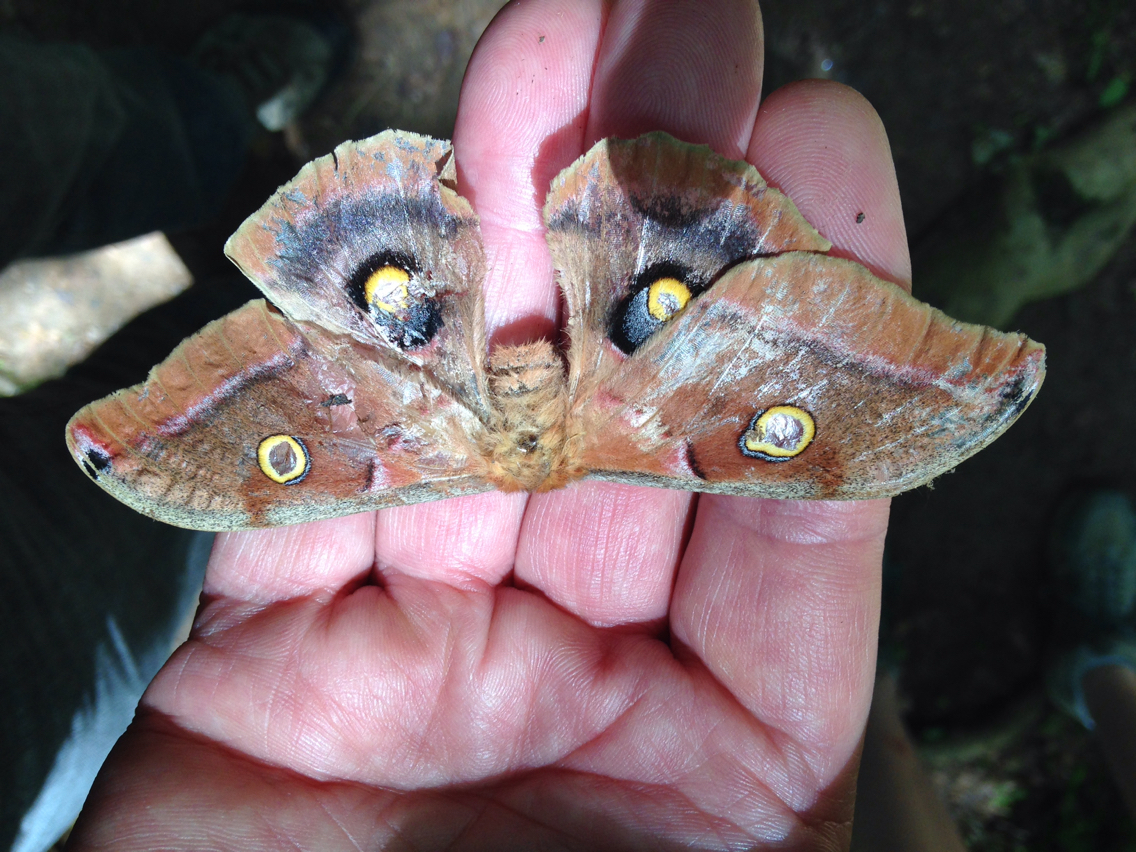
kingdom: Animalia
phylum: Arthropoda
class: Insecta
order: Lepidoptera
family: Saturniidae
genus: Antheraea
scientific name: Antheraea polyphemus
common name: Polyphemus moth
